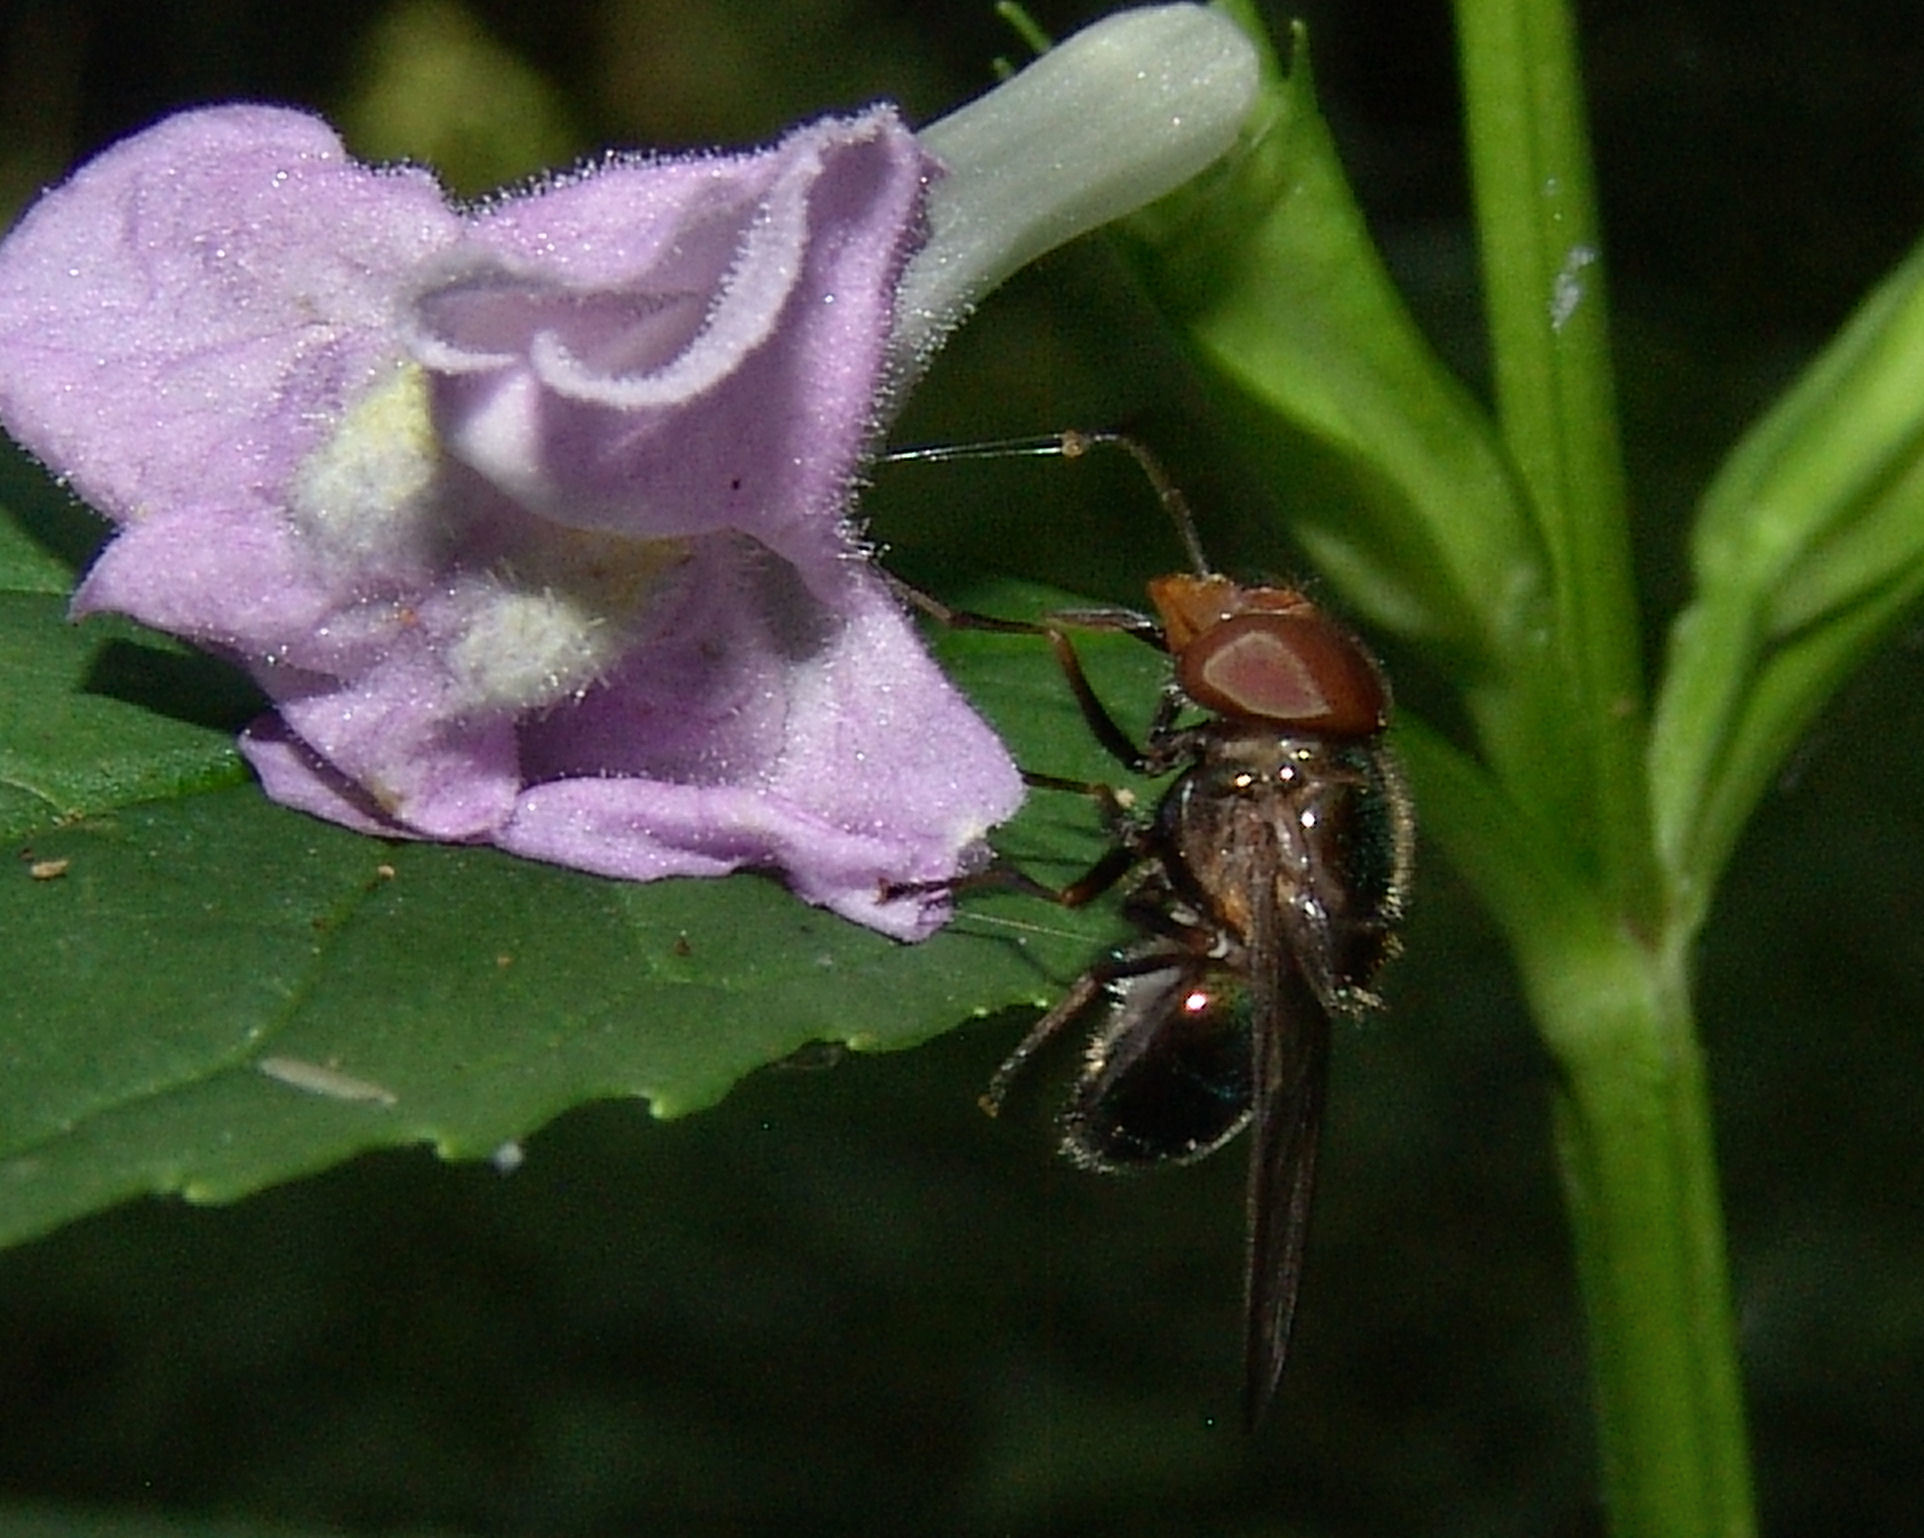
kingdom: Animalia
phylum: Arthropoda
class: Insecta
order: Diptera
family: Syrphidae
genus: Copestylum
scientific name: Copestylum vesicularium
